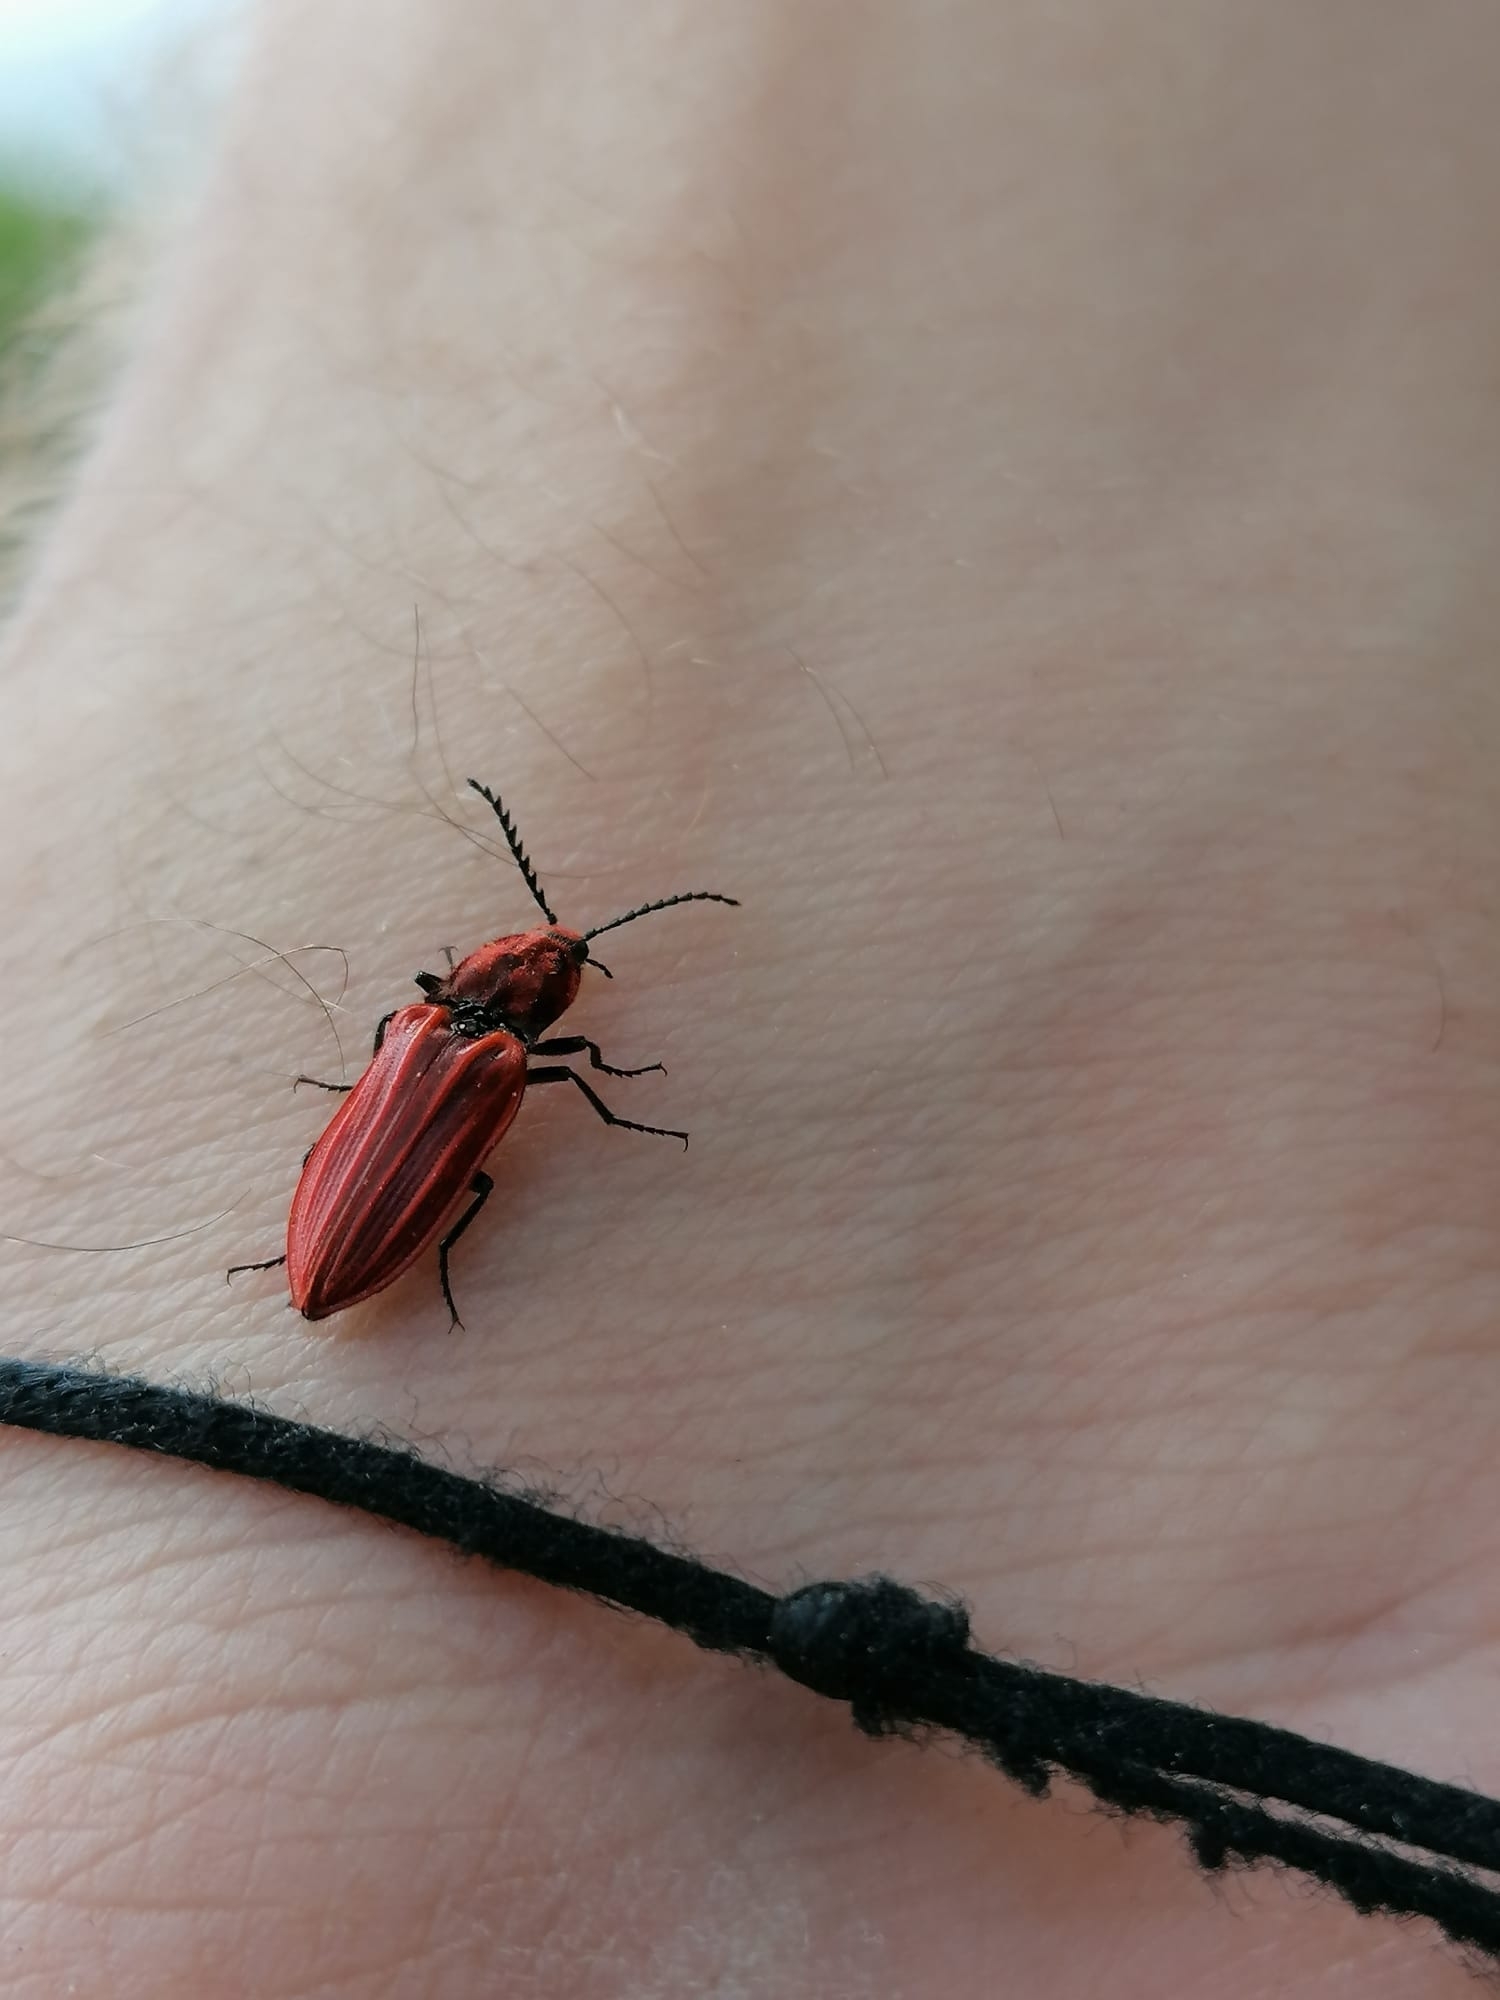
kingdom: Animalia
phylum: Arthropoda
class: Insecta
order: Coleoptera
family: Elateridae
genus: Anostirus
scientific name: Anostirus purpureus
